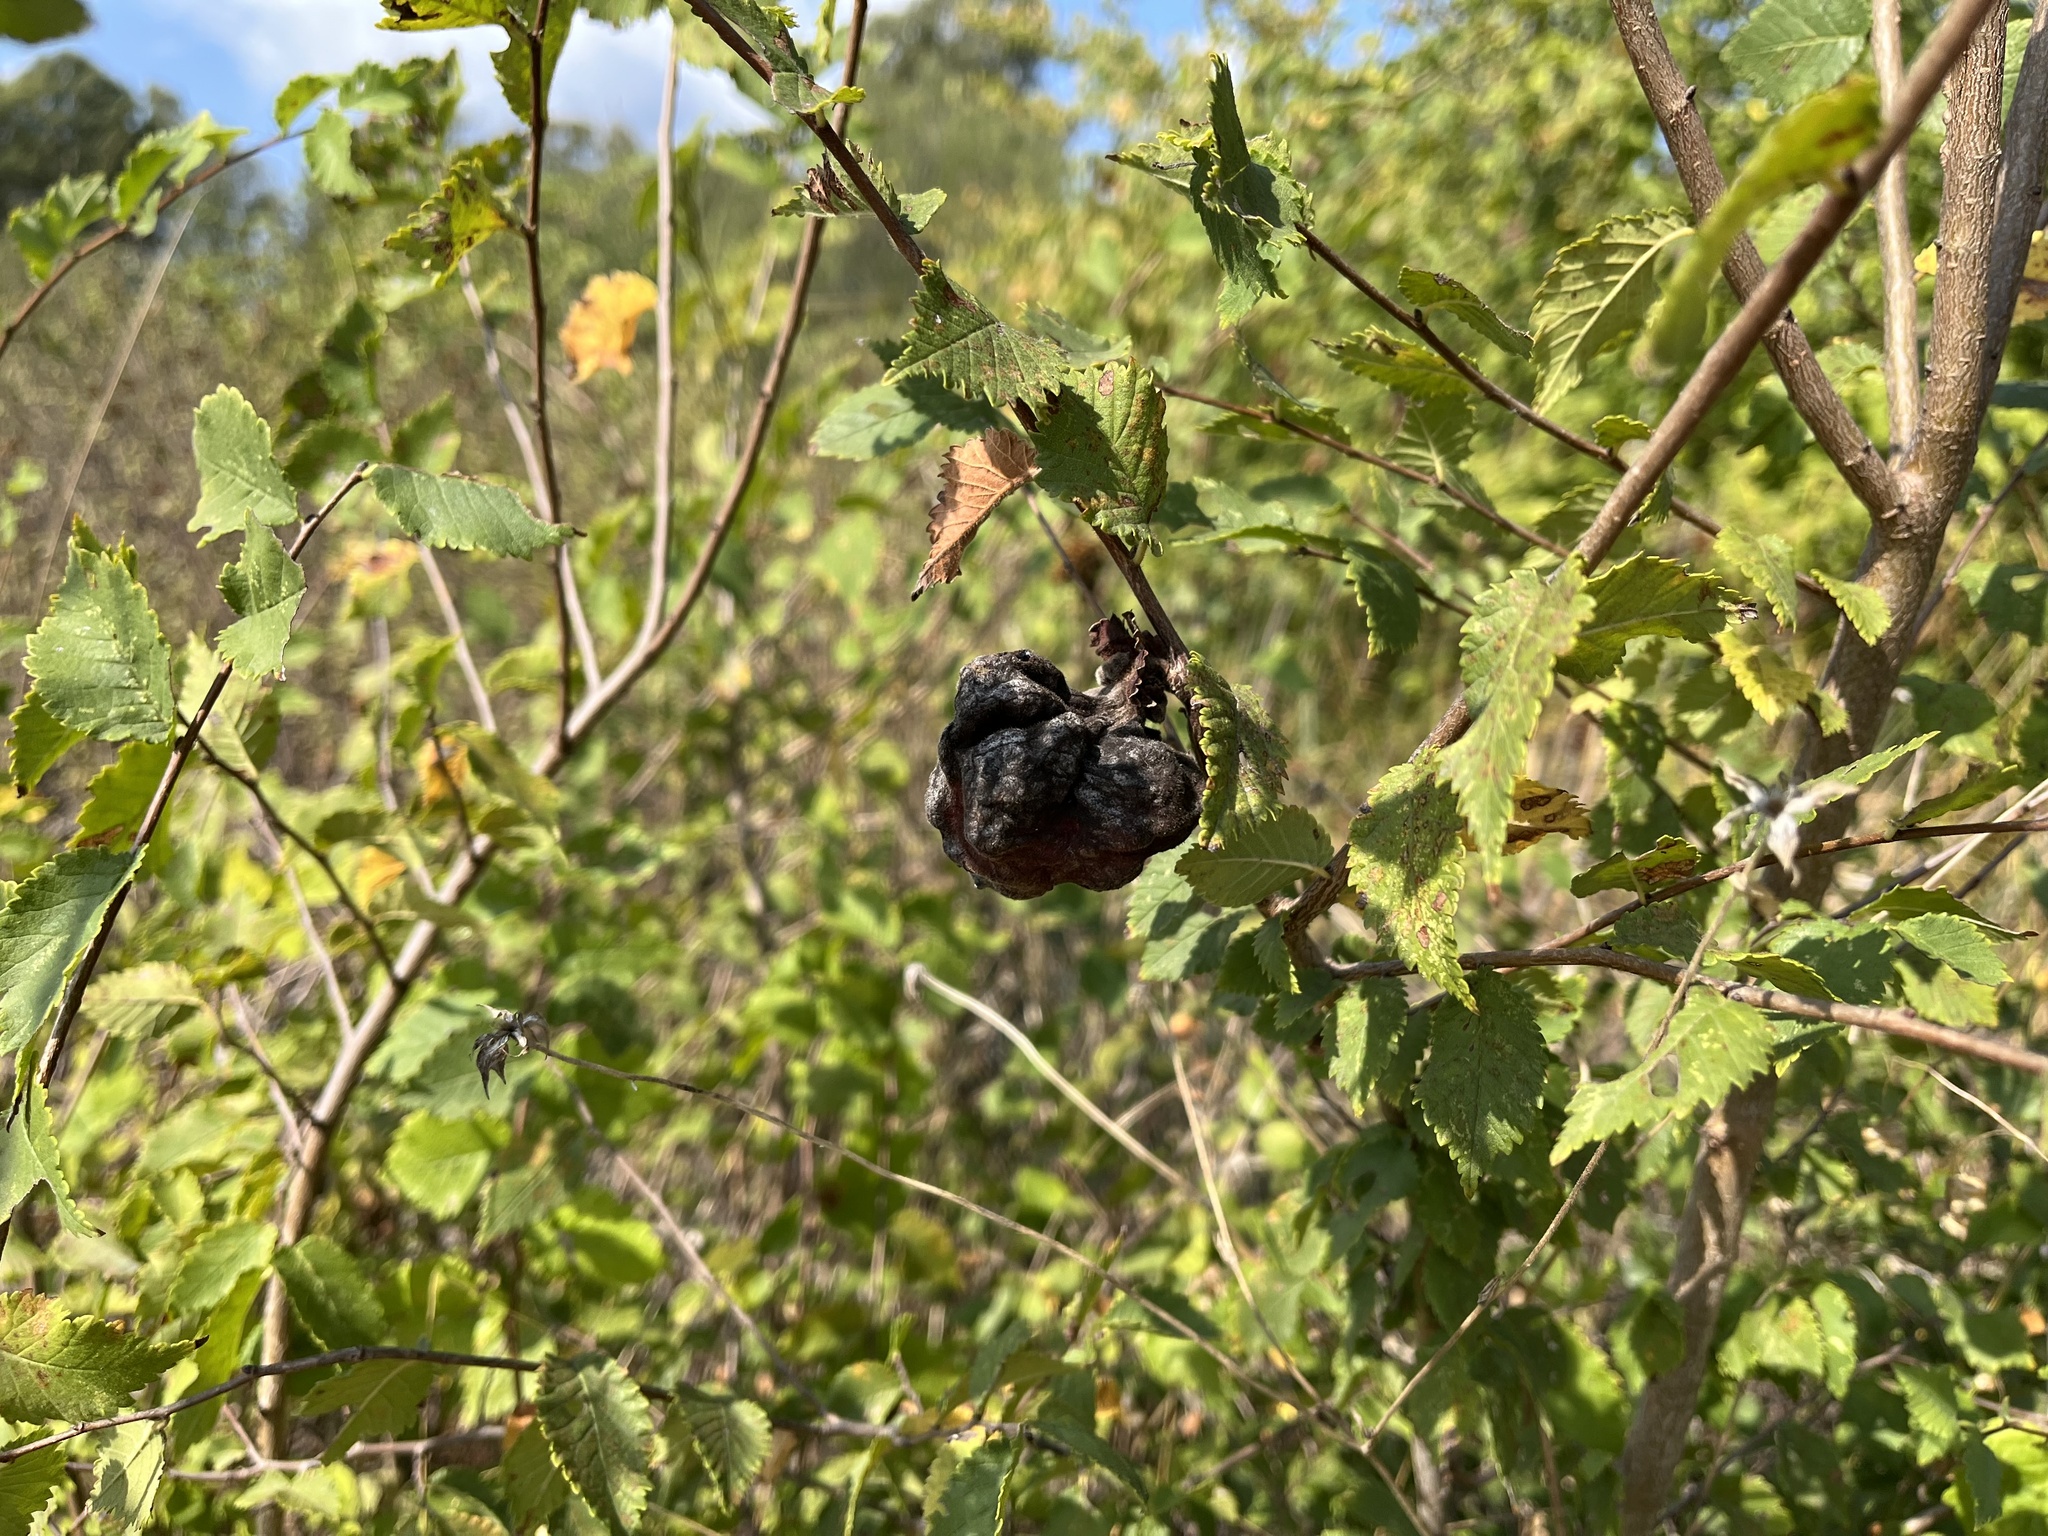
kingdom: Animalia
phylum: Arthropoda
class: Insecta
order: Hemiptera
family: Aphididae
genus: Eriosoma
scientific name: Eriosoma lanuginosum
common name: Aphid
